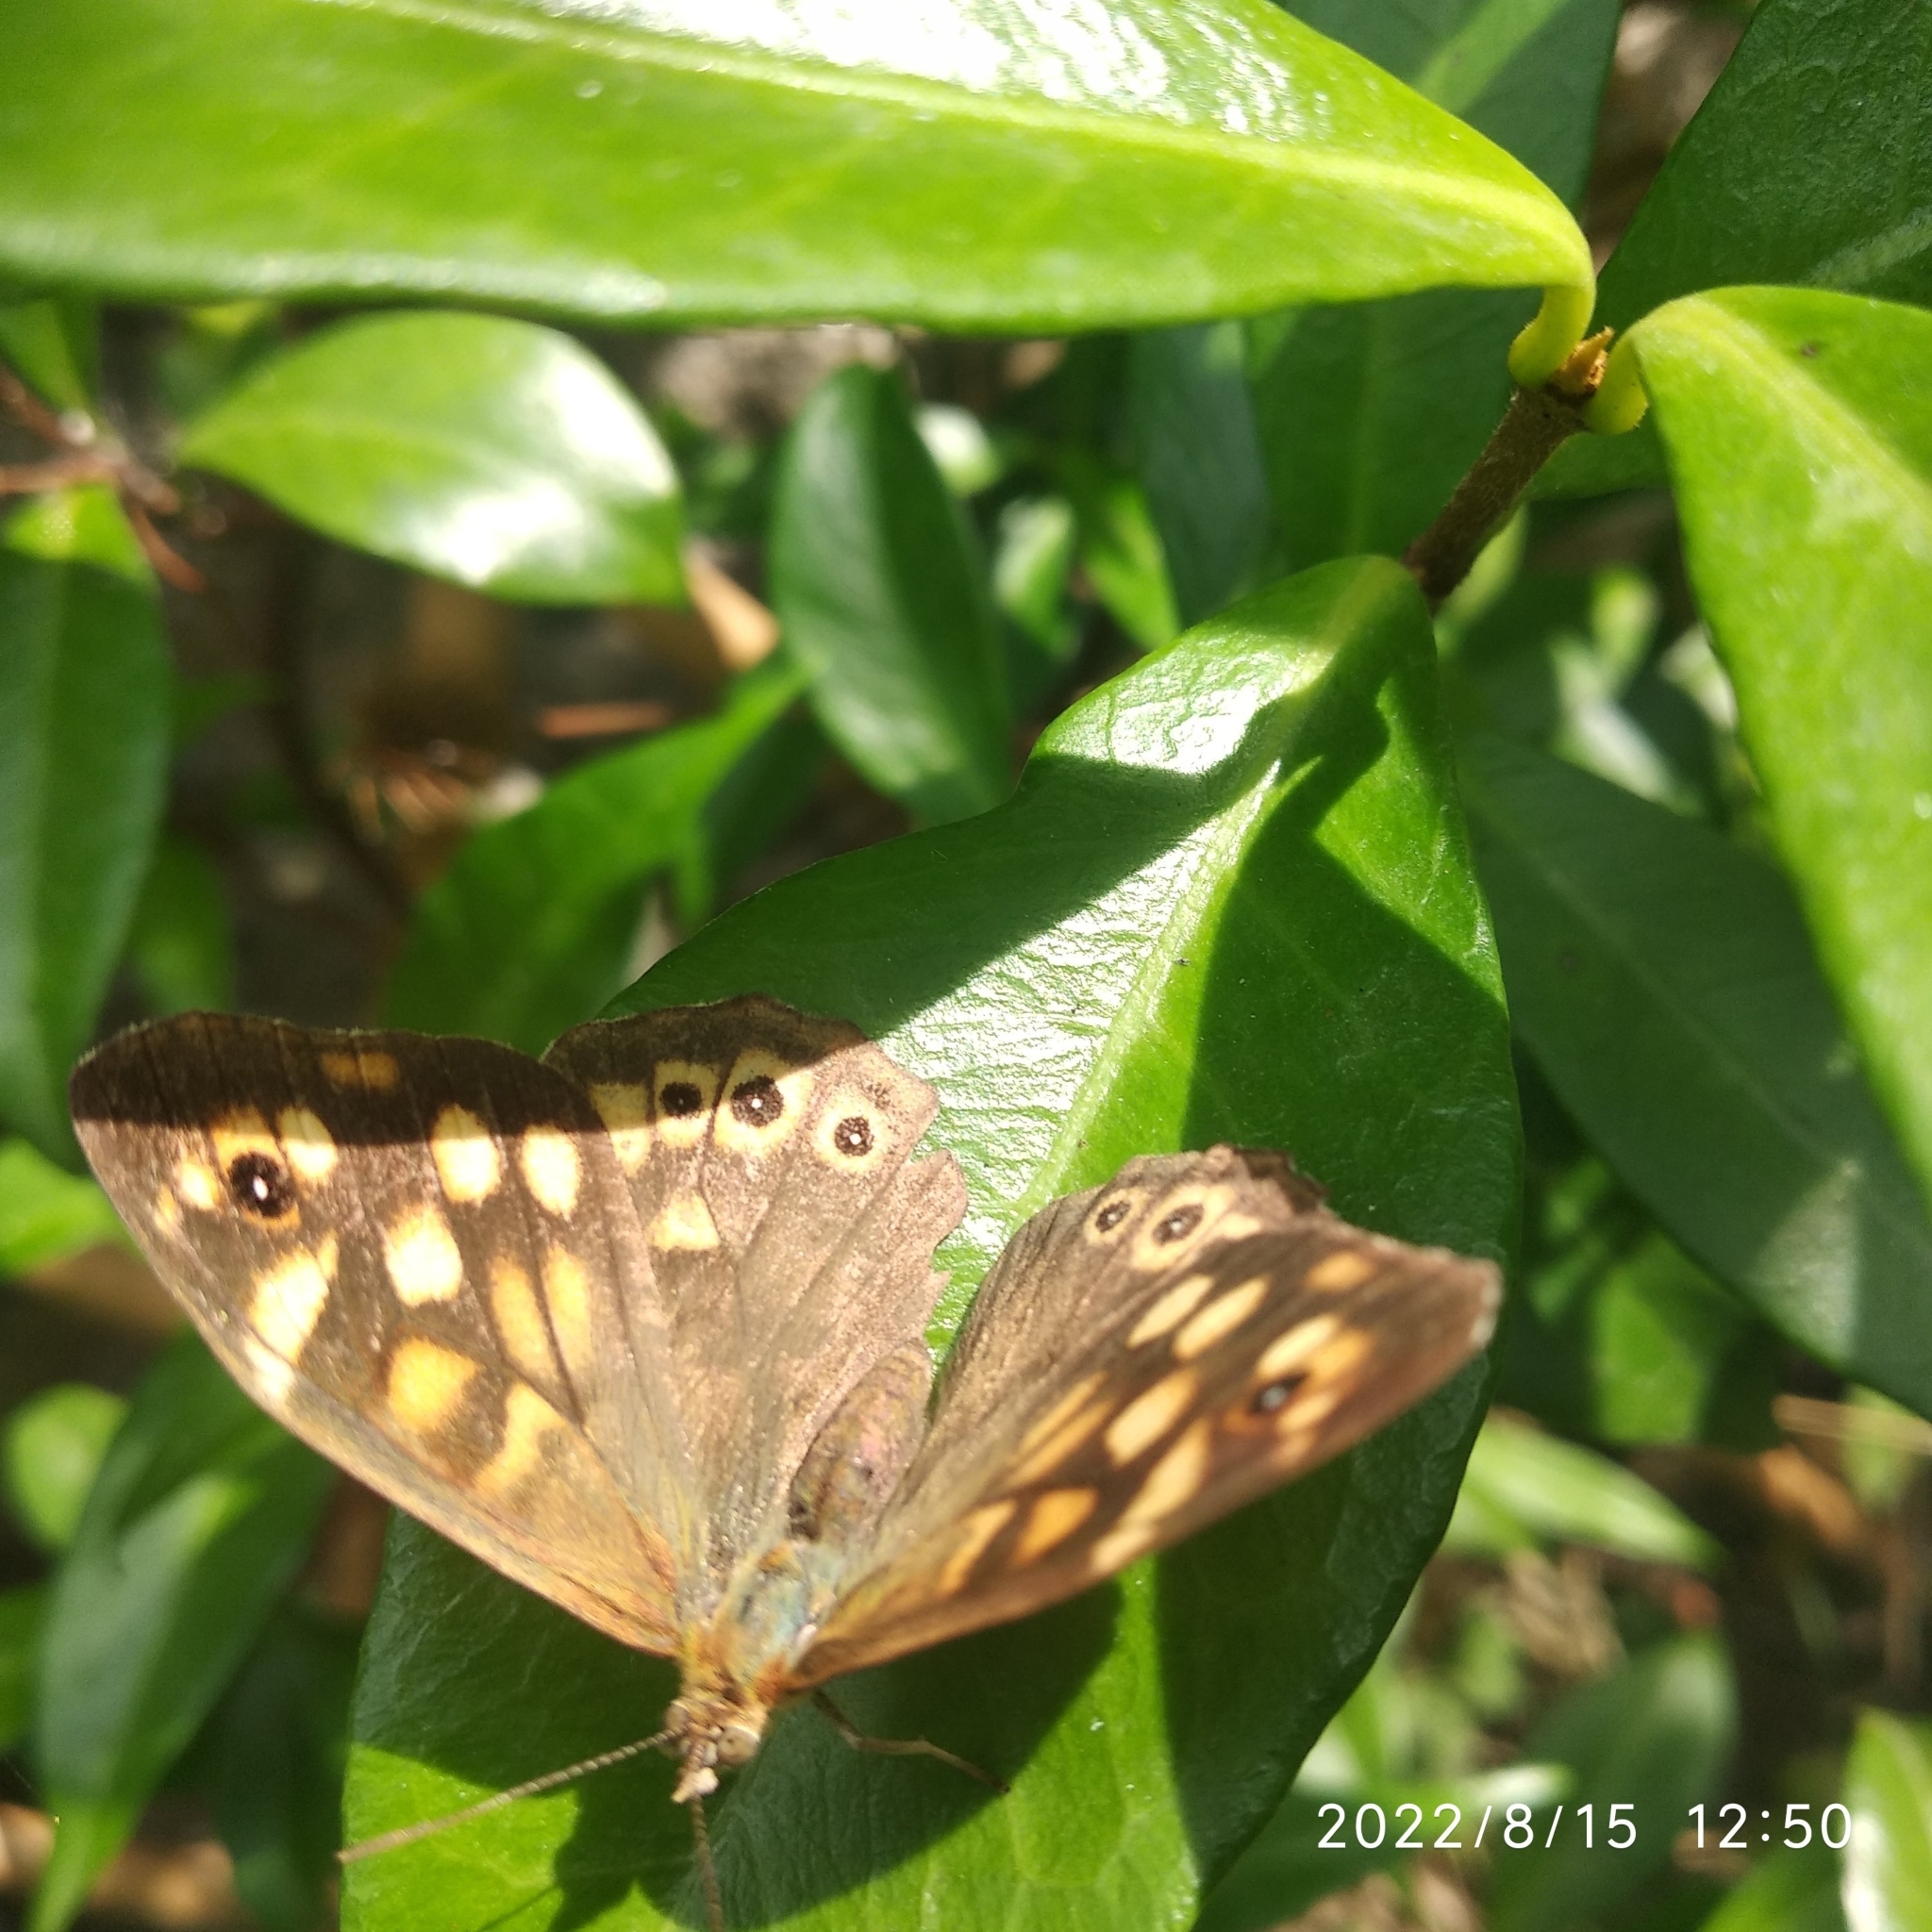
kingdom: Animalia
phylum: Arthropoda
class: Insecta
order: Lepidoptera
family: Nymphalidae
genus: Pararge
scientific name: Pararge aegeria
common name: Speckled wood
